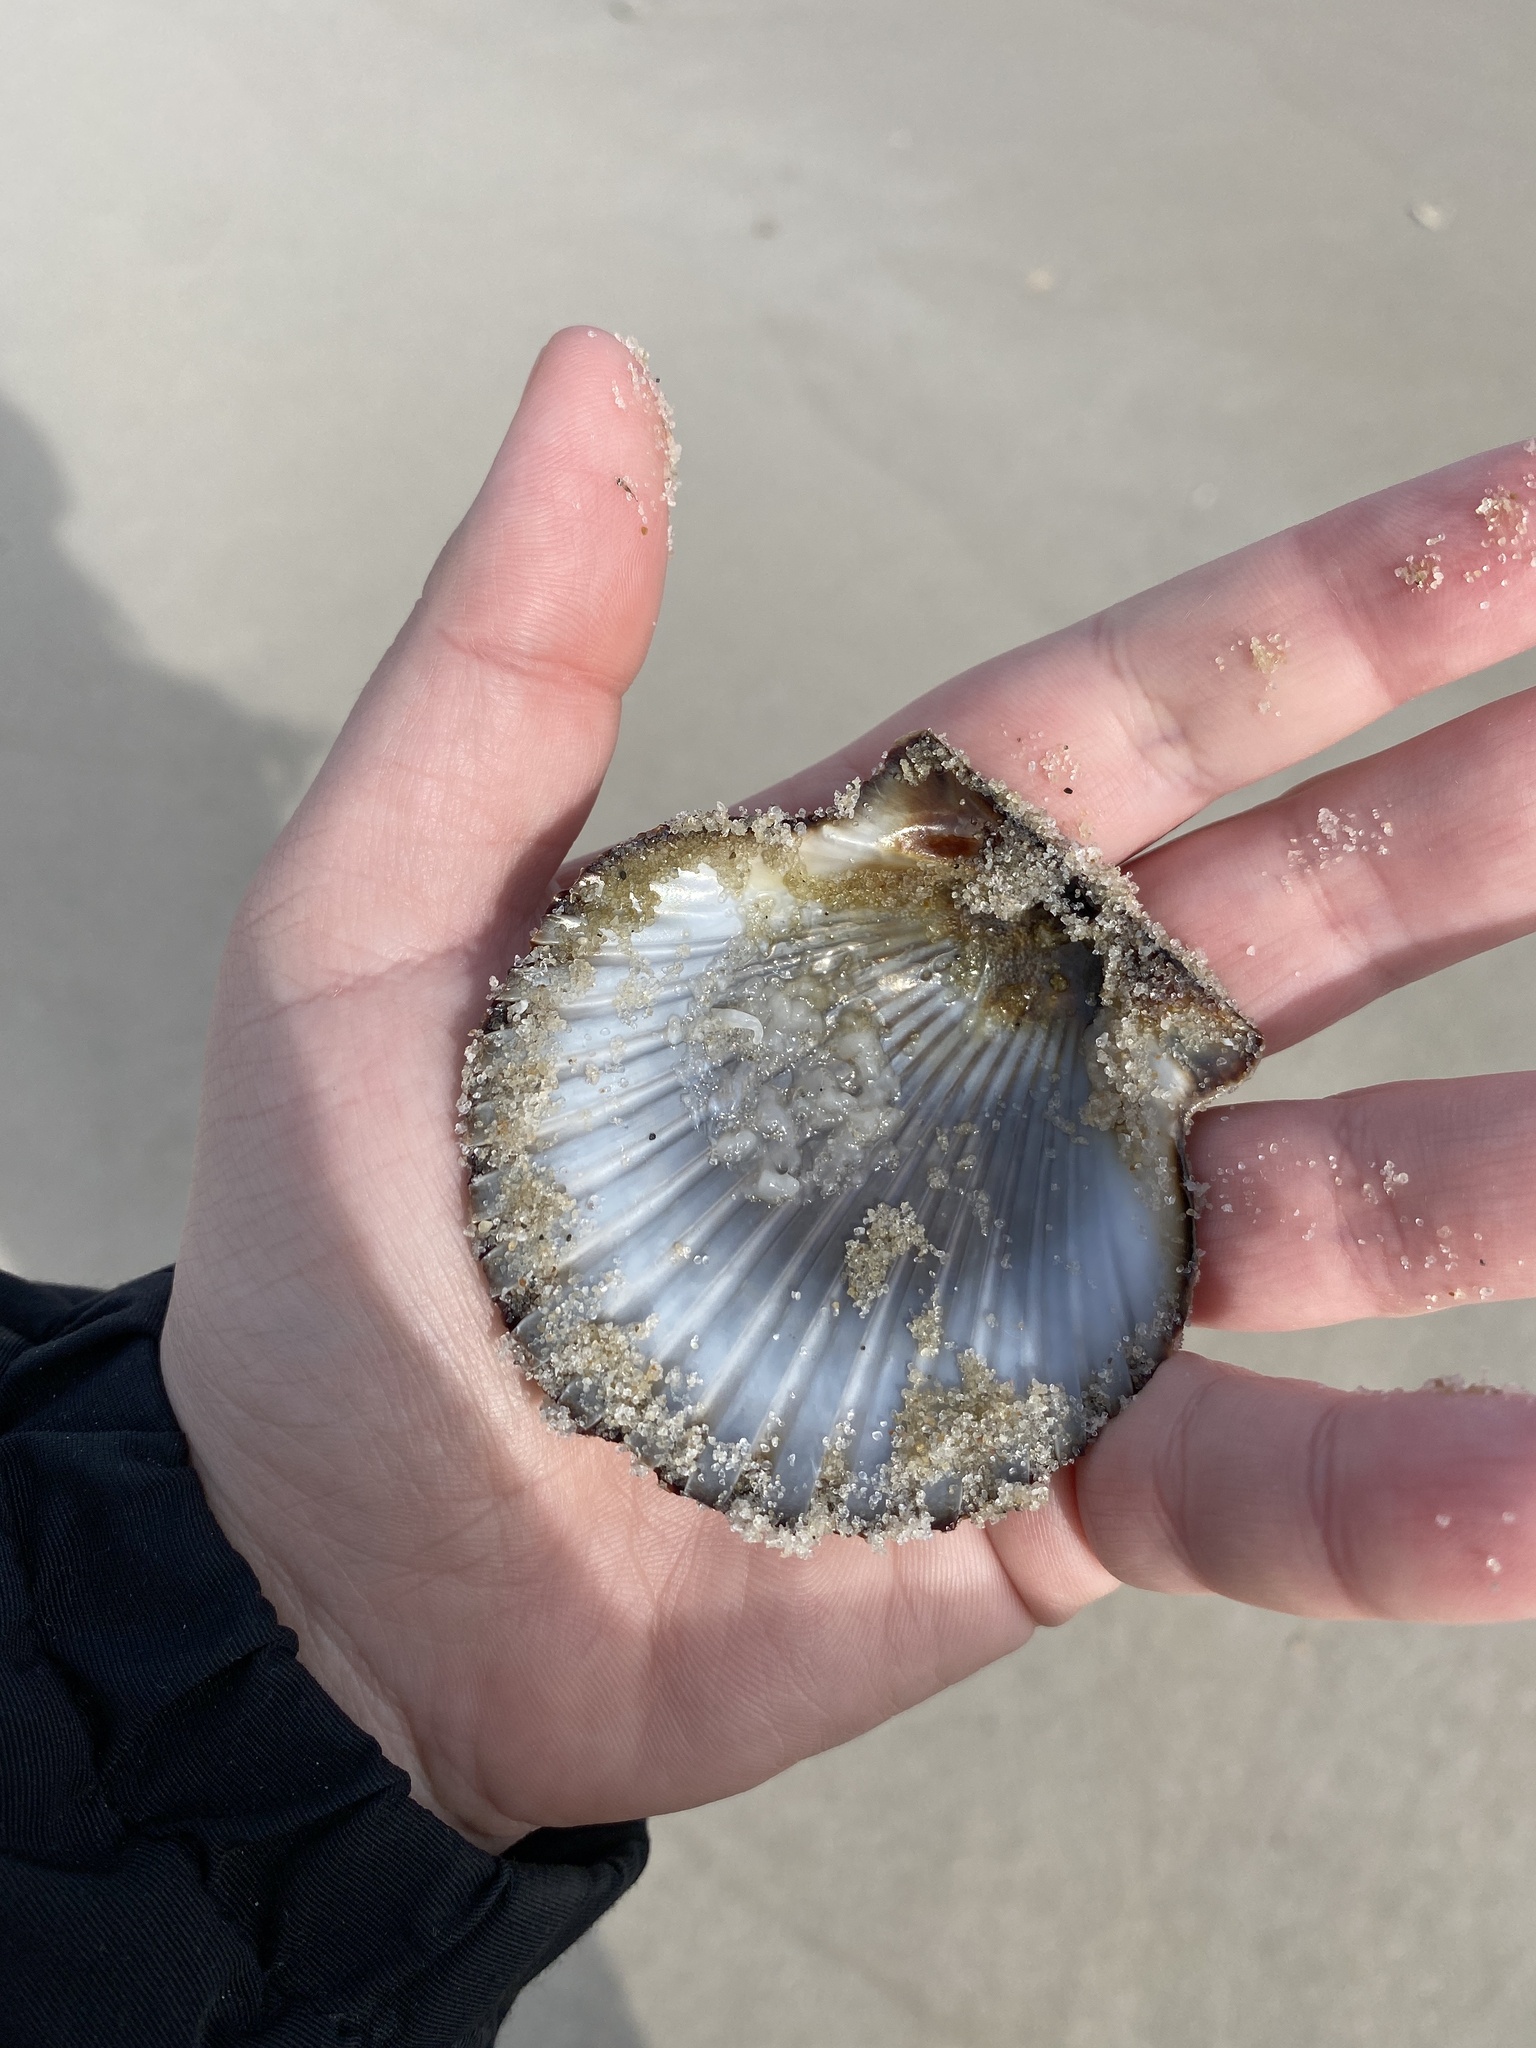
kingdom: Animalia
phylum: Mollusca
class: Bivalvia
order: Pectinida
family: Pectinidae
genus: Argopecten
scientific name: Argopecten irradians
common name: Atlantic bay scallop
